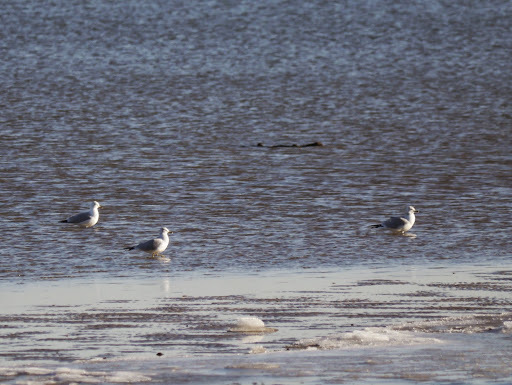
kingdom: Animalia
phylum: Chordata
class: Aves
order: Charadriiformes
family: Laridae
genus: Larus
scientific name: Larus delawarensis
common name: Ring-billed gull
